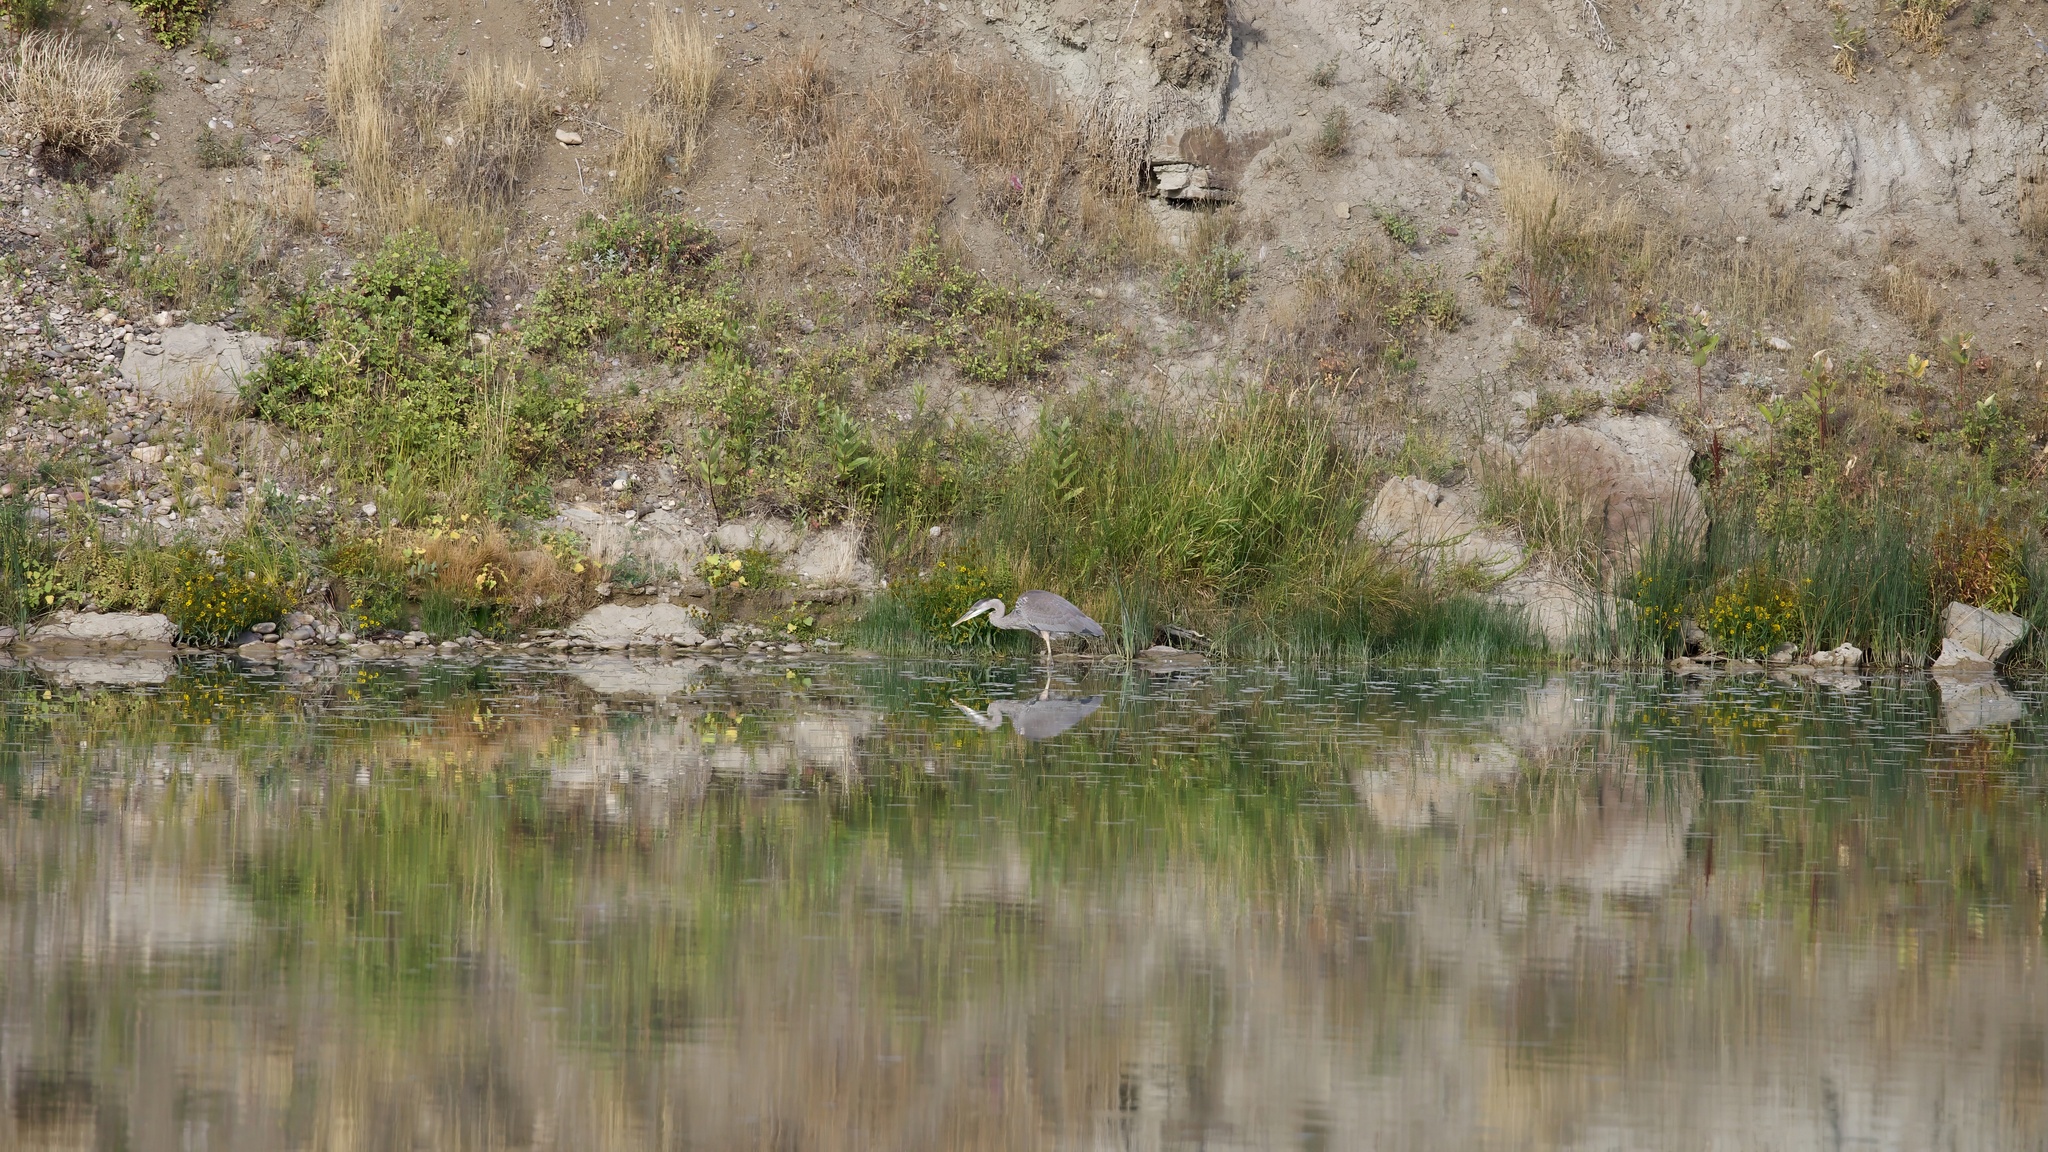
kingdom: Animalia
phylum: Chordata
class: Aves
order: Pelecaniformes
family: Ardeidae
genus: Ardea
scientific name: Ardea herodias
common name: Great blue heron
